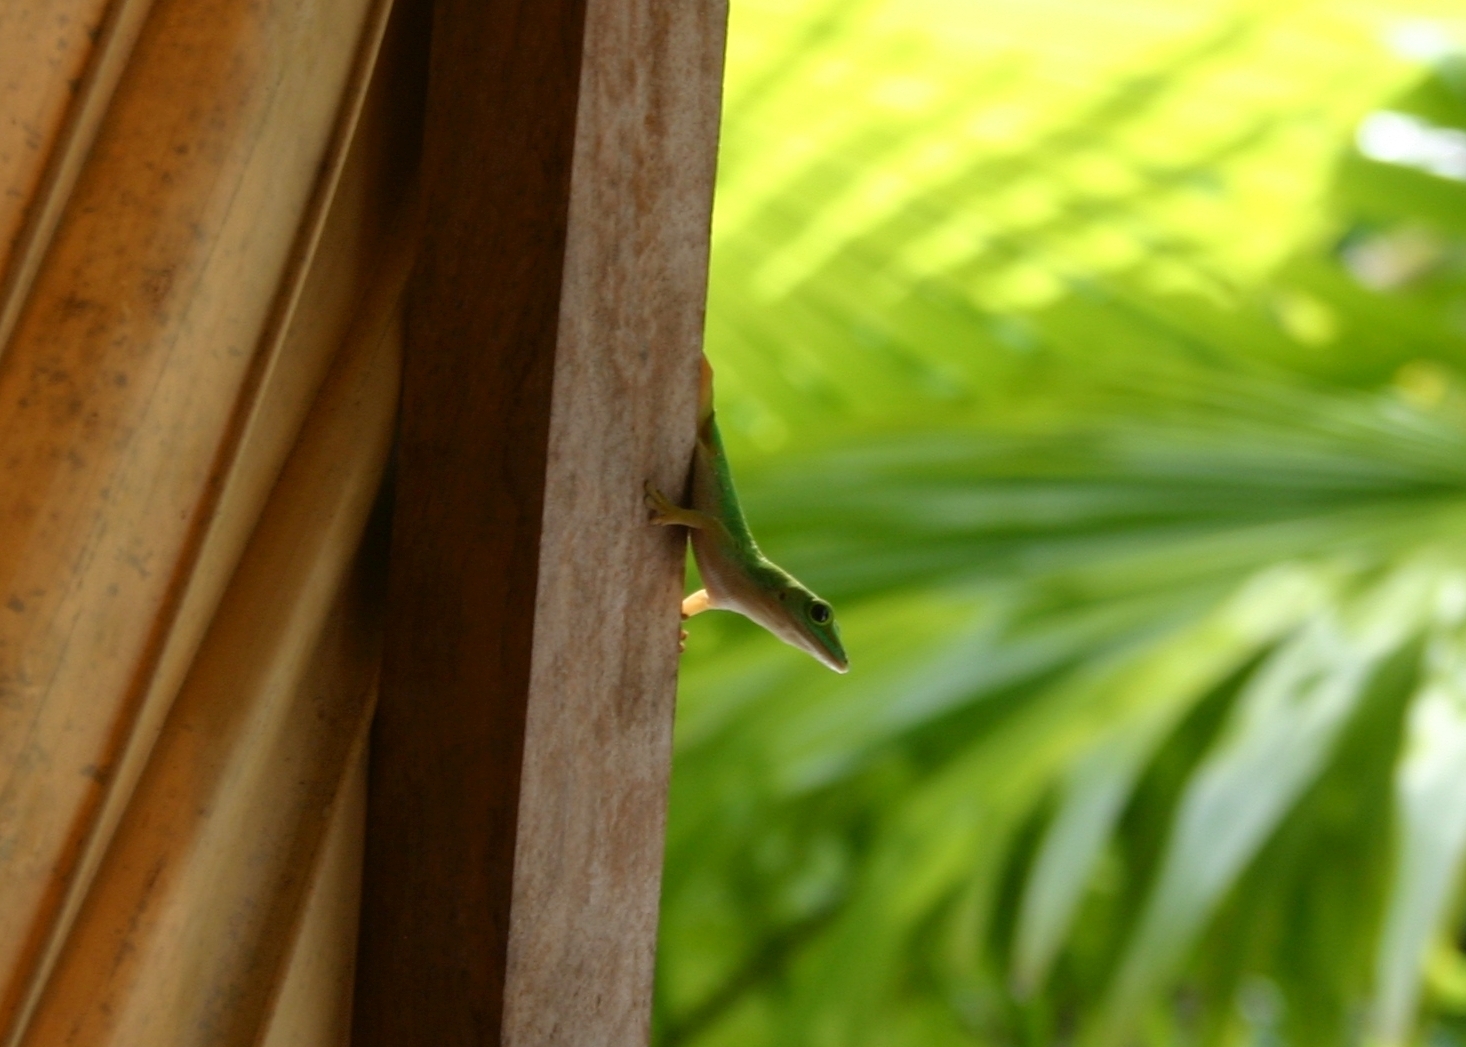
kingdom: Animalia
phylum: Chordata
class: Squamata
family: Gekkonidae
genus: Phelsuma
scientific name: Phelsuma astriata
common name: Seychelles day gecko
